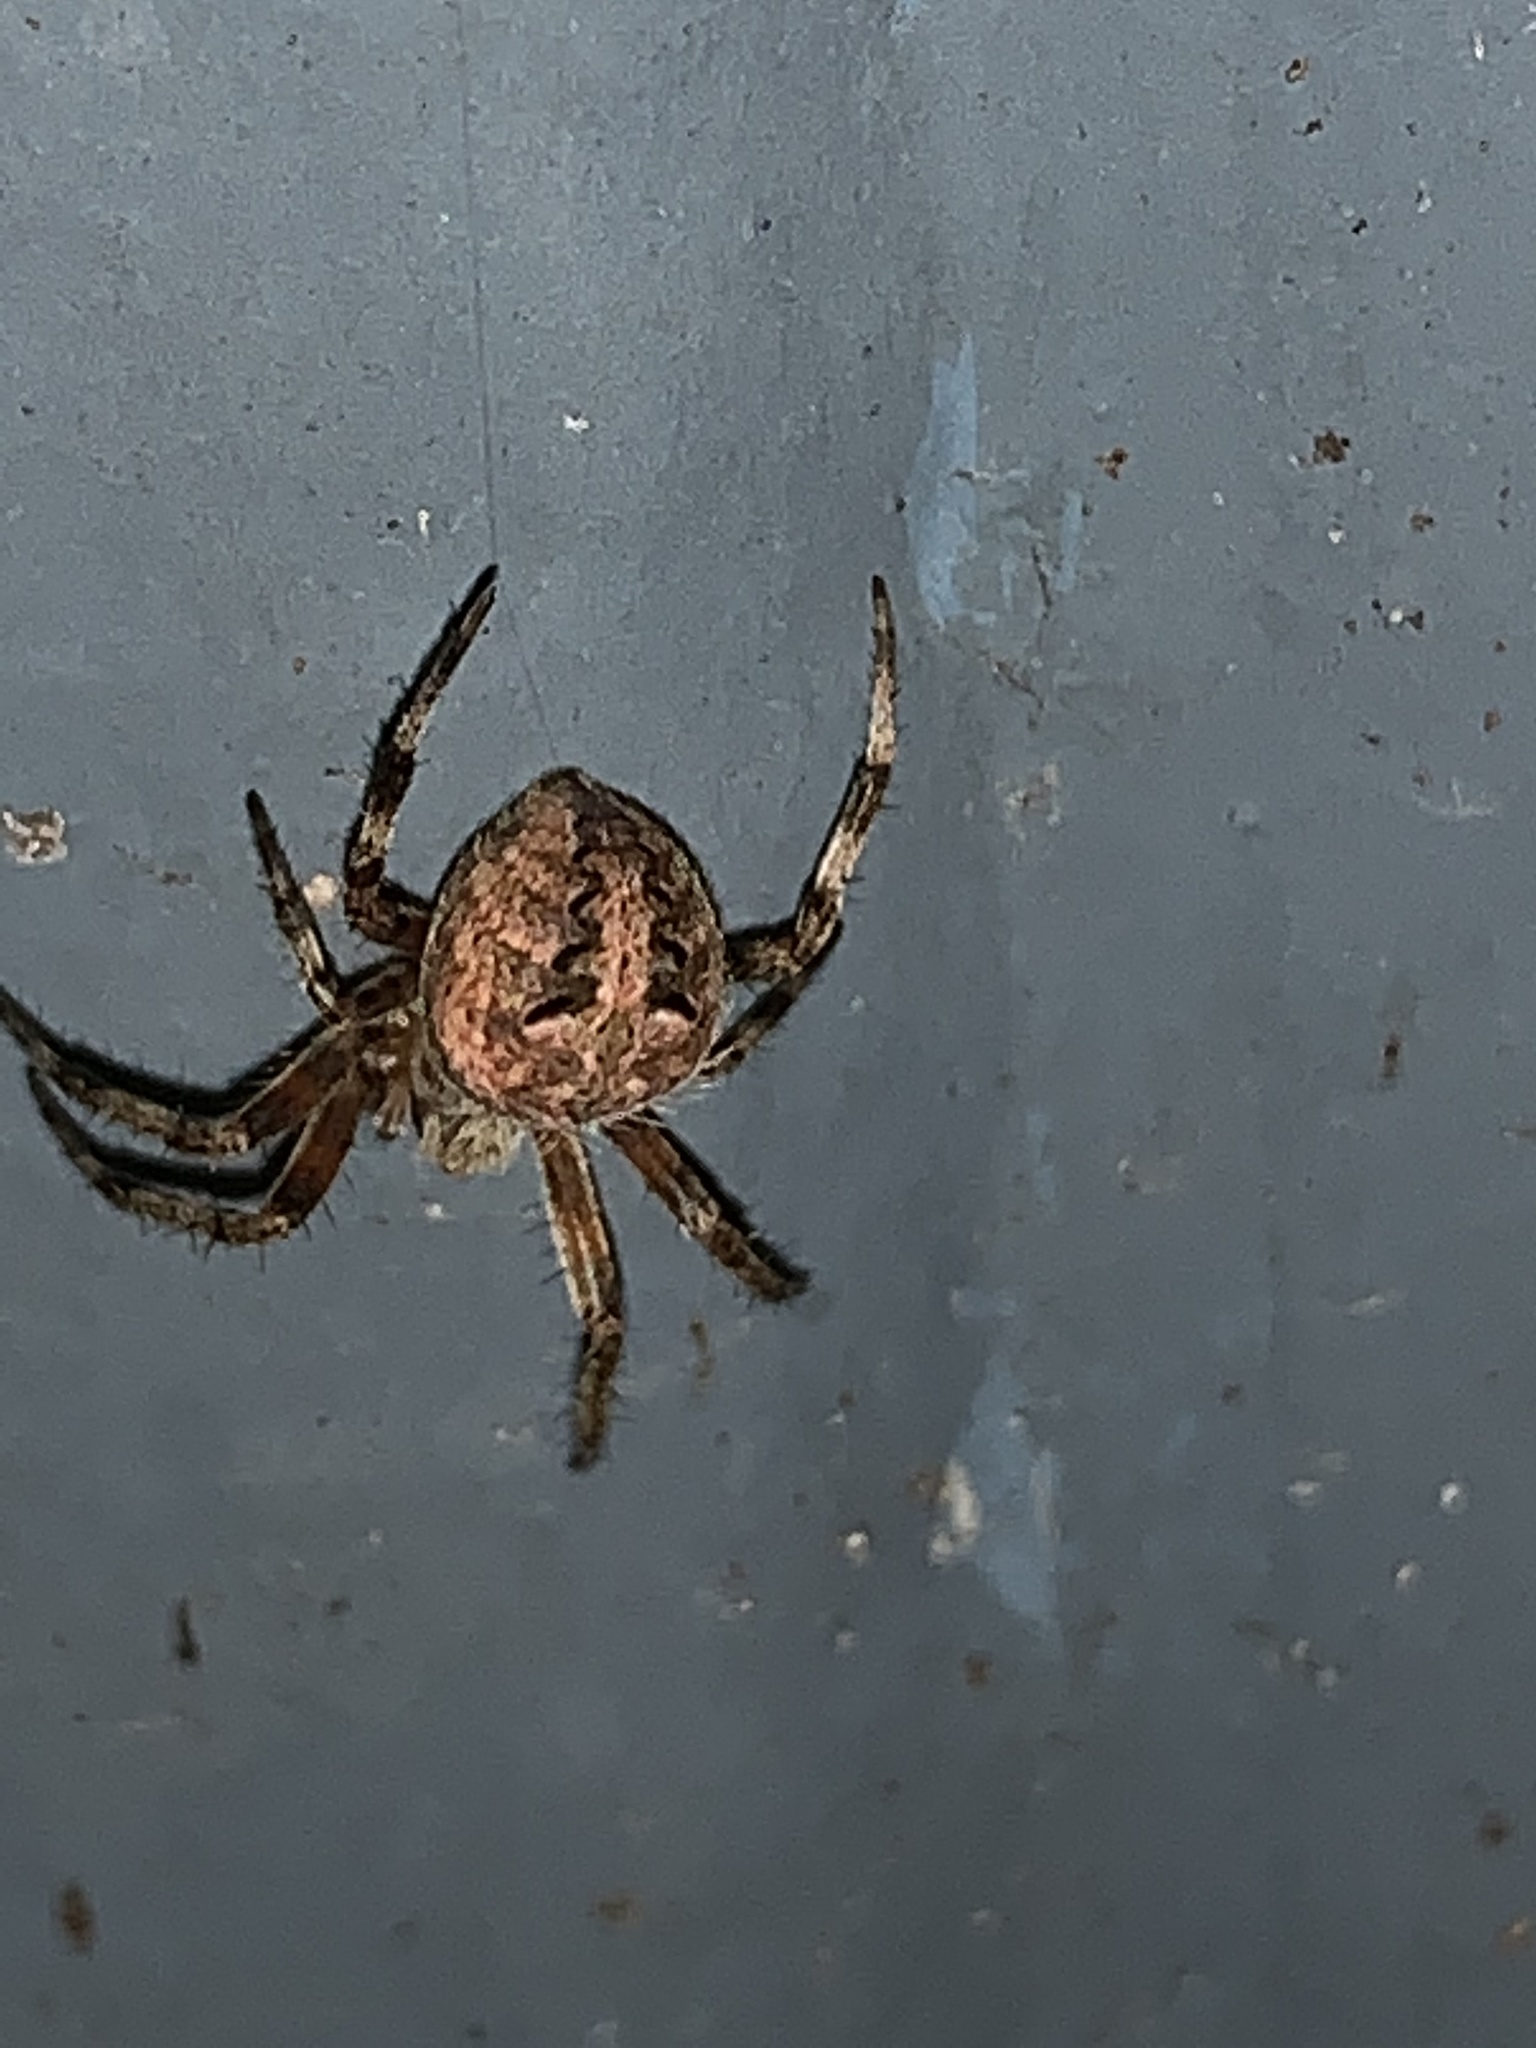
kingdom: Animalia
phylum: Arthropoda
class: Arachnida
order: Araneae
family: Araneidae
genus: Neoscona
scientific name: Neoscona arabesca
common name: Orb weavers
